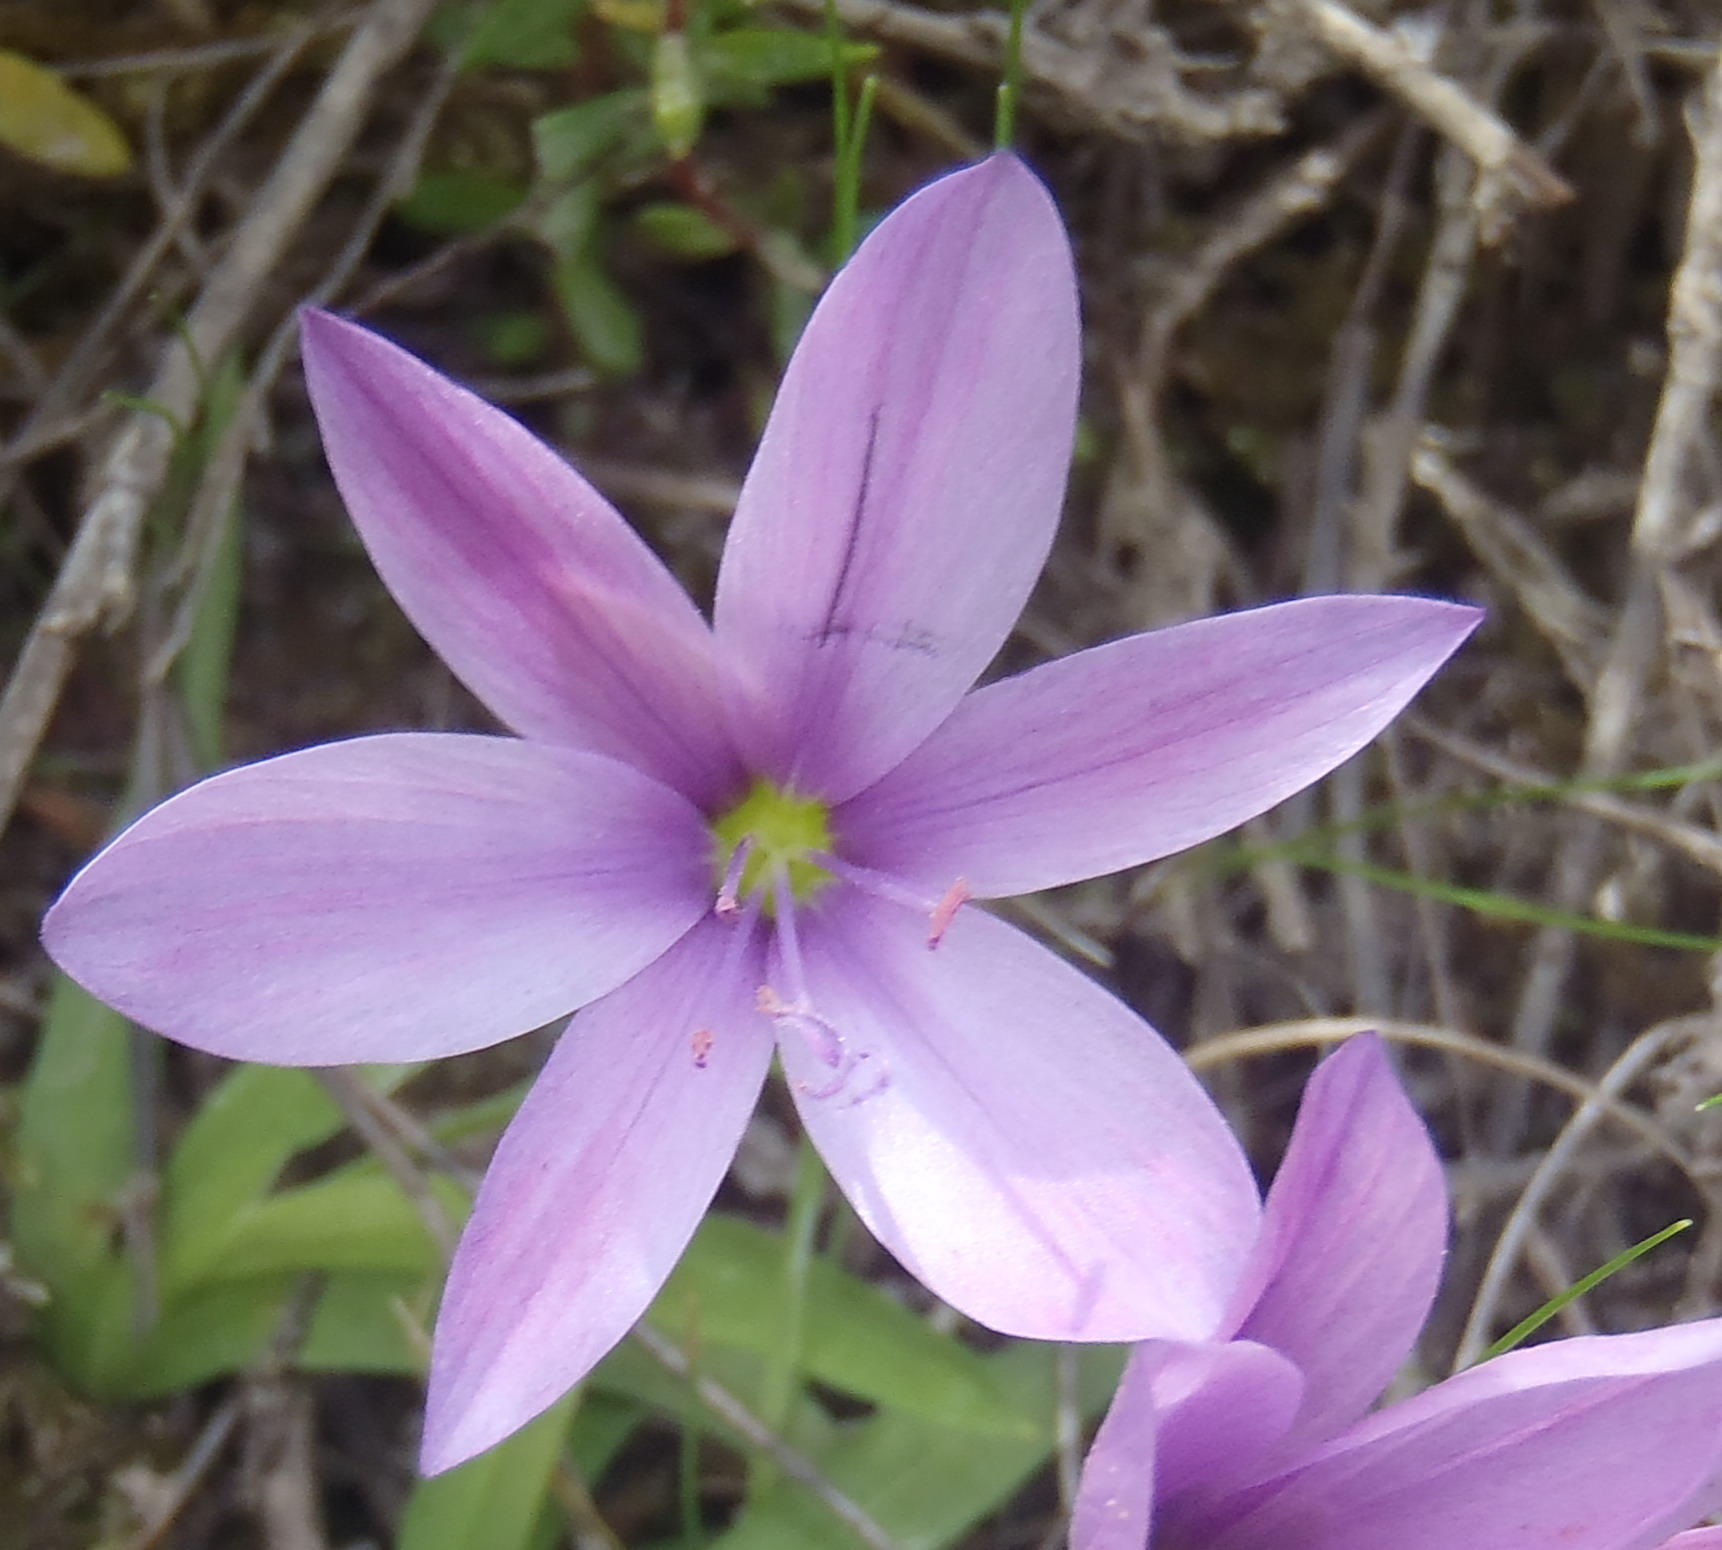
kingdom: Plantae
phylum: Tracheophyta
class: Liliopsida
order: Asparagales
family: Iridaceae
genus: Geissorhiza
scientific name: Geissorhiza nigromontana
